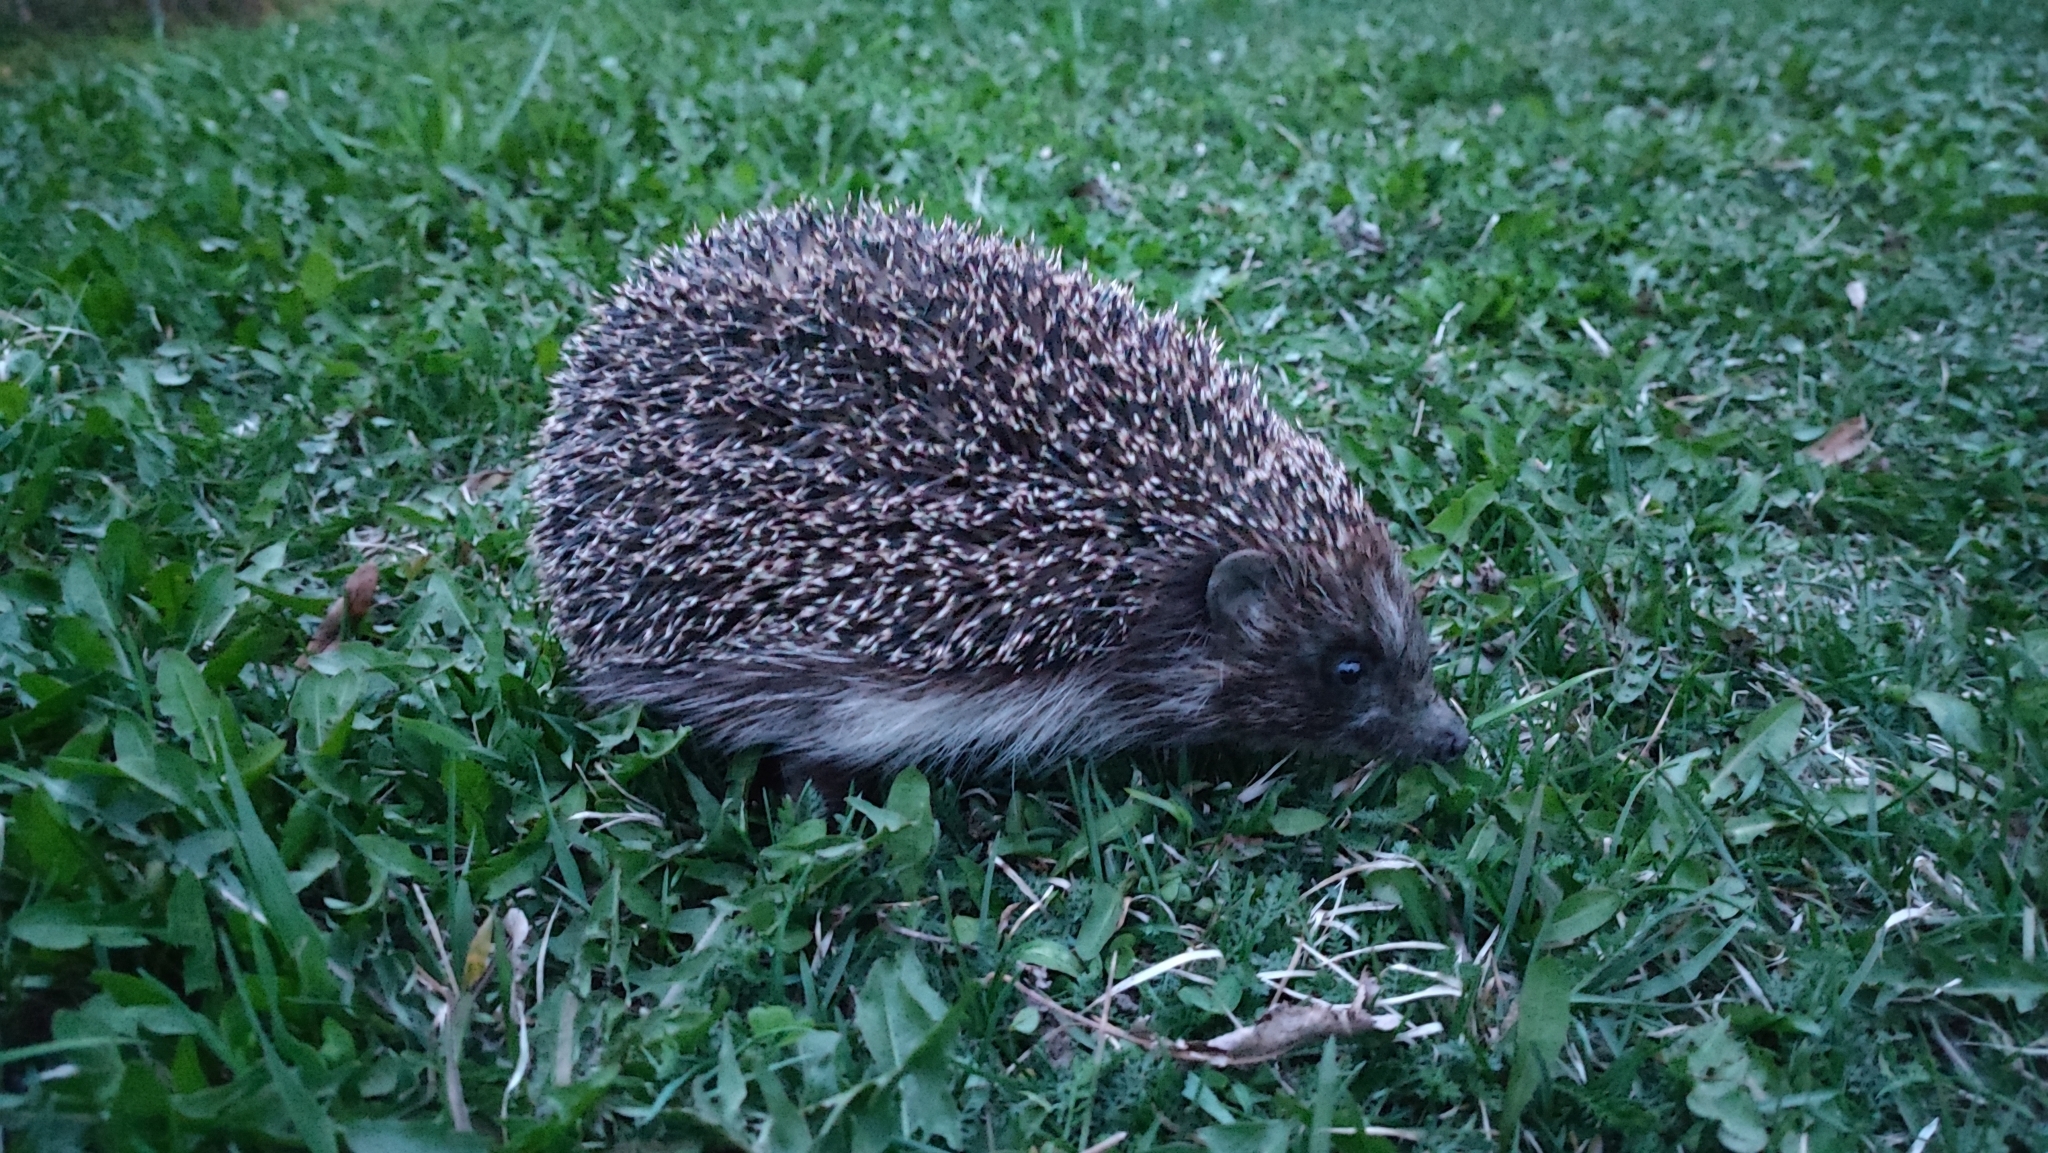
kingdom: Animalia
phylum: Chordata
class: Mammalia
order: Erinaceomorpha
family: Erinaceidae
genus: Erinaceus
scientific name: Erinaceus europaeus
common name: West european hedgehog
